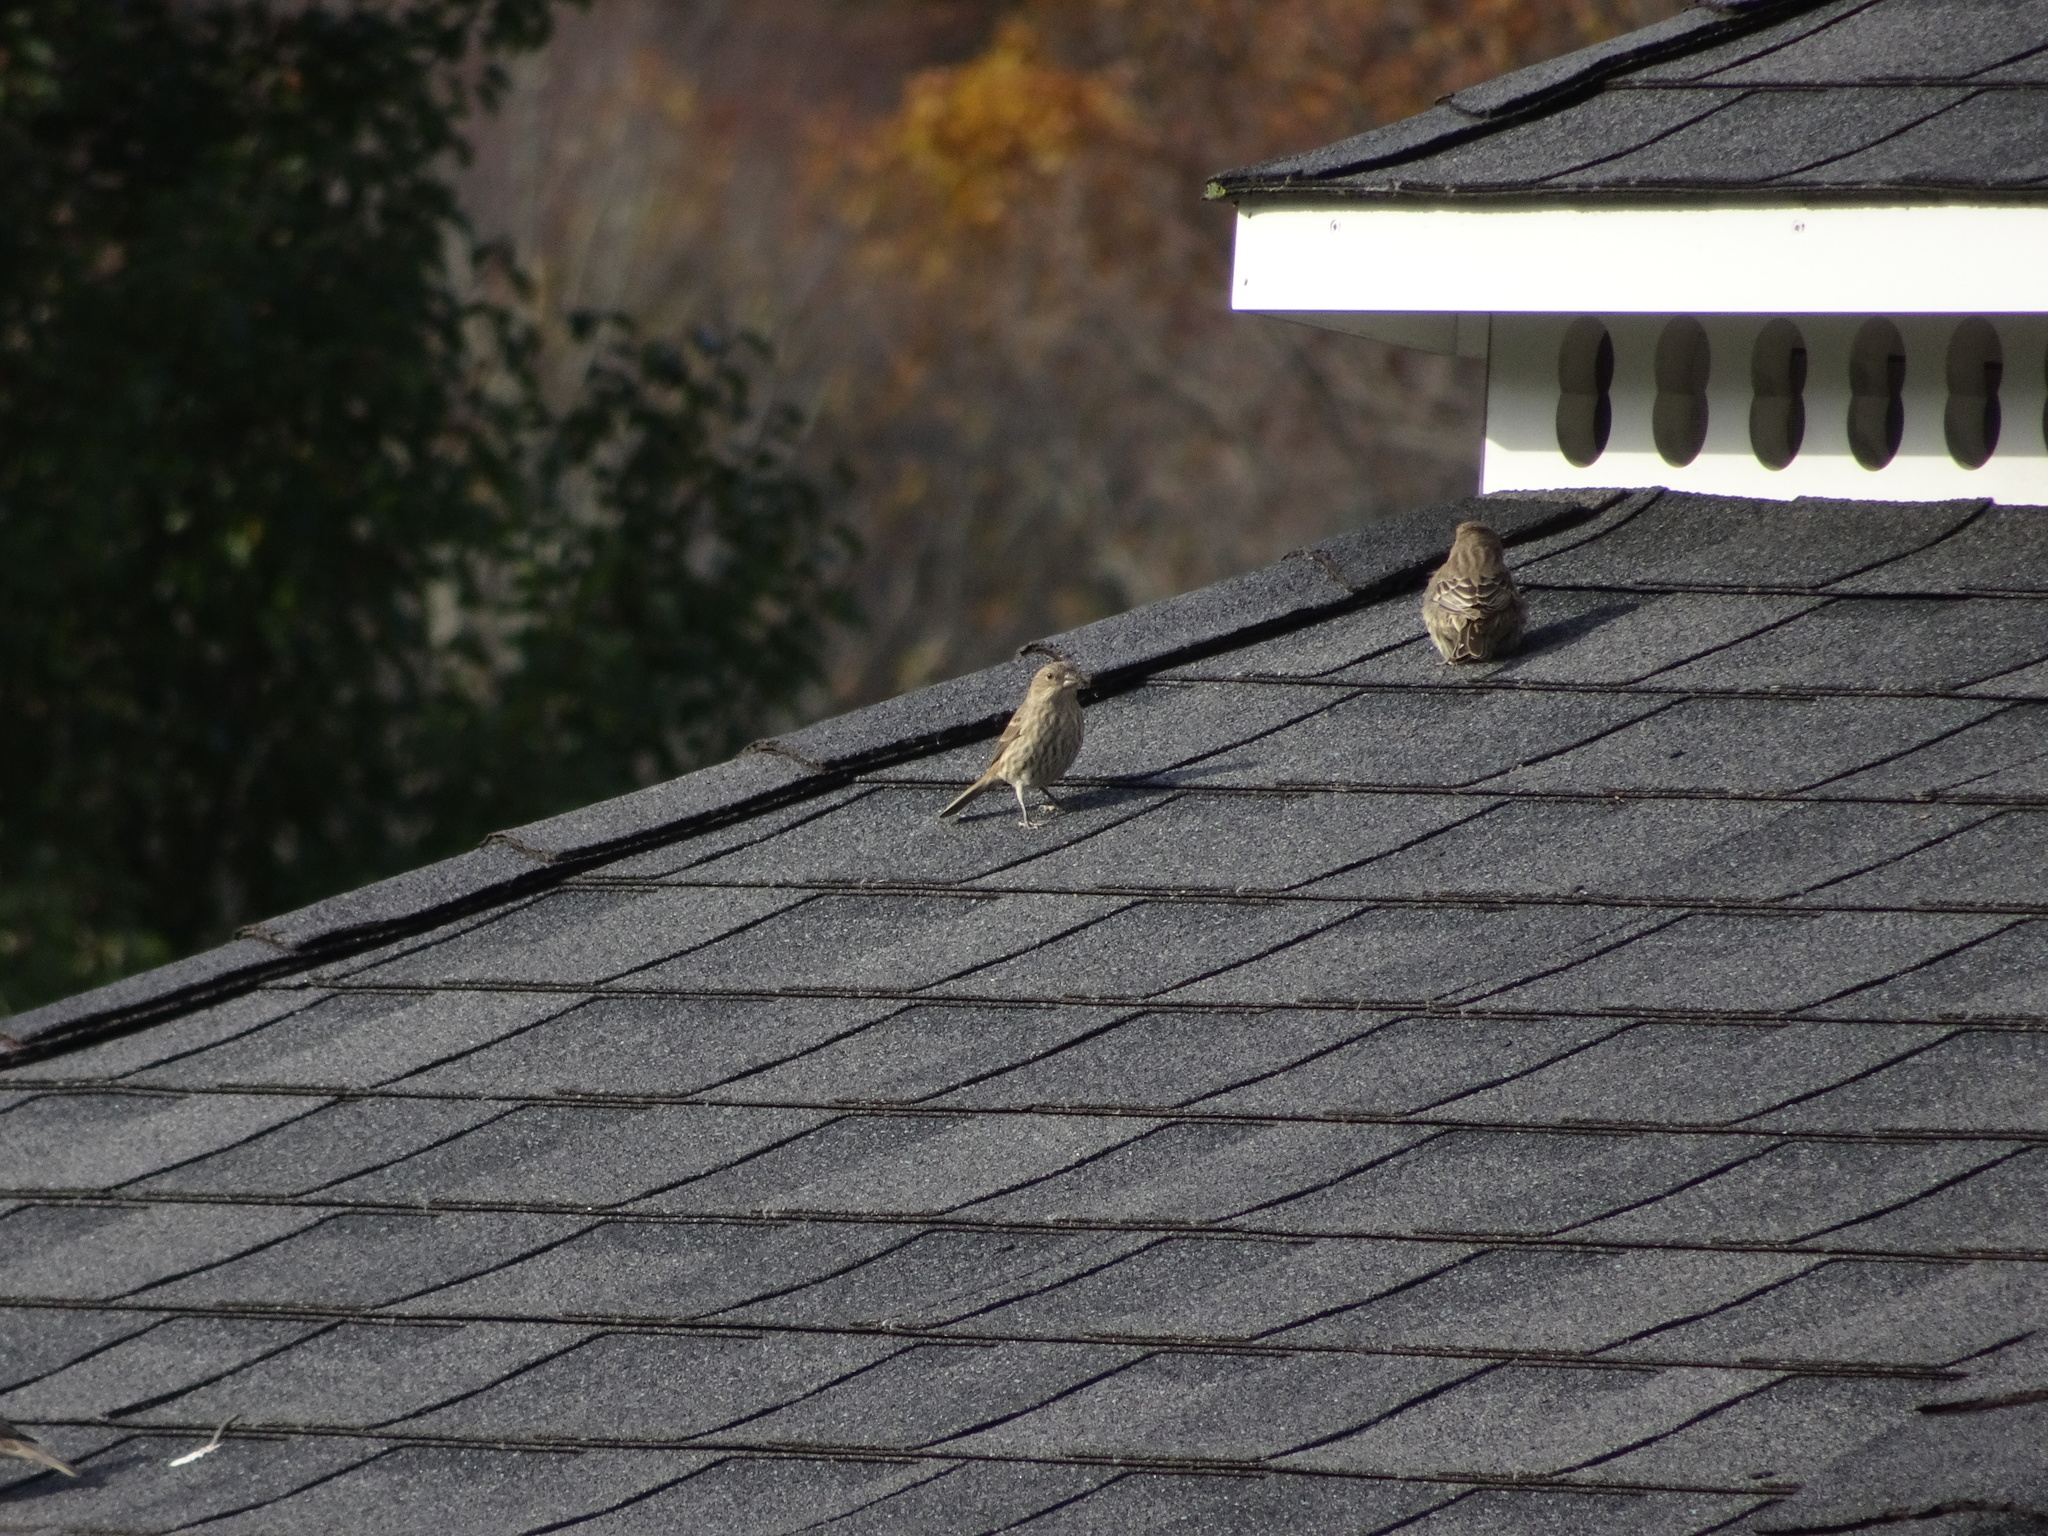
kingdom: Animalia
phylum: Chordata
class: Aves
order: Passeriformes
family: Fringillidae
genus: Haemorhous
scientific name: Haemorhous mexicanus
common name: House finch
